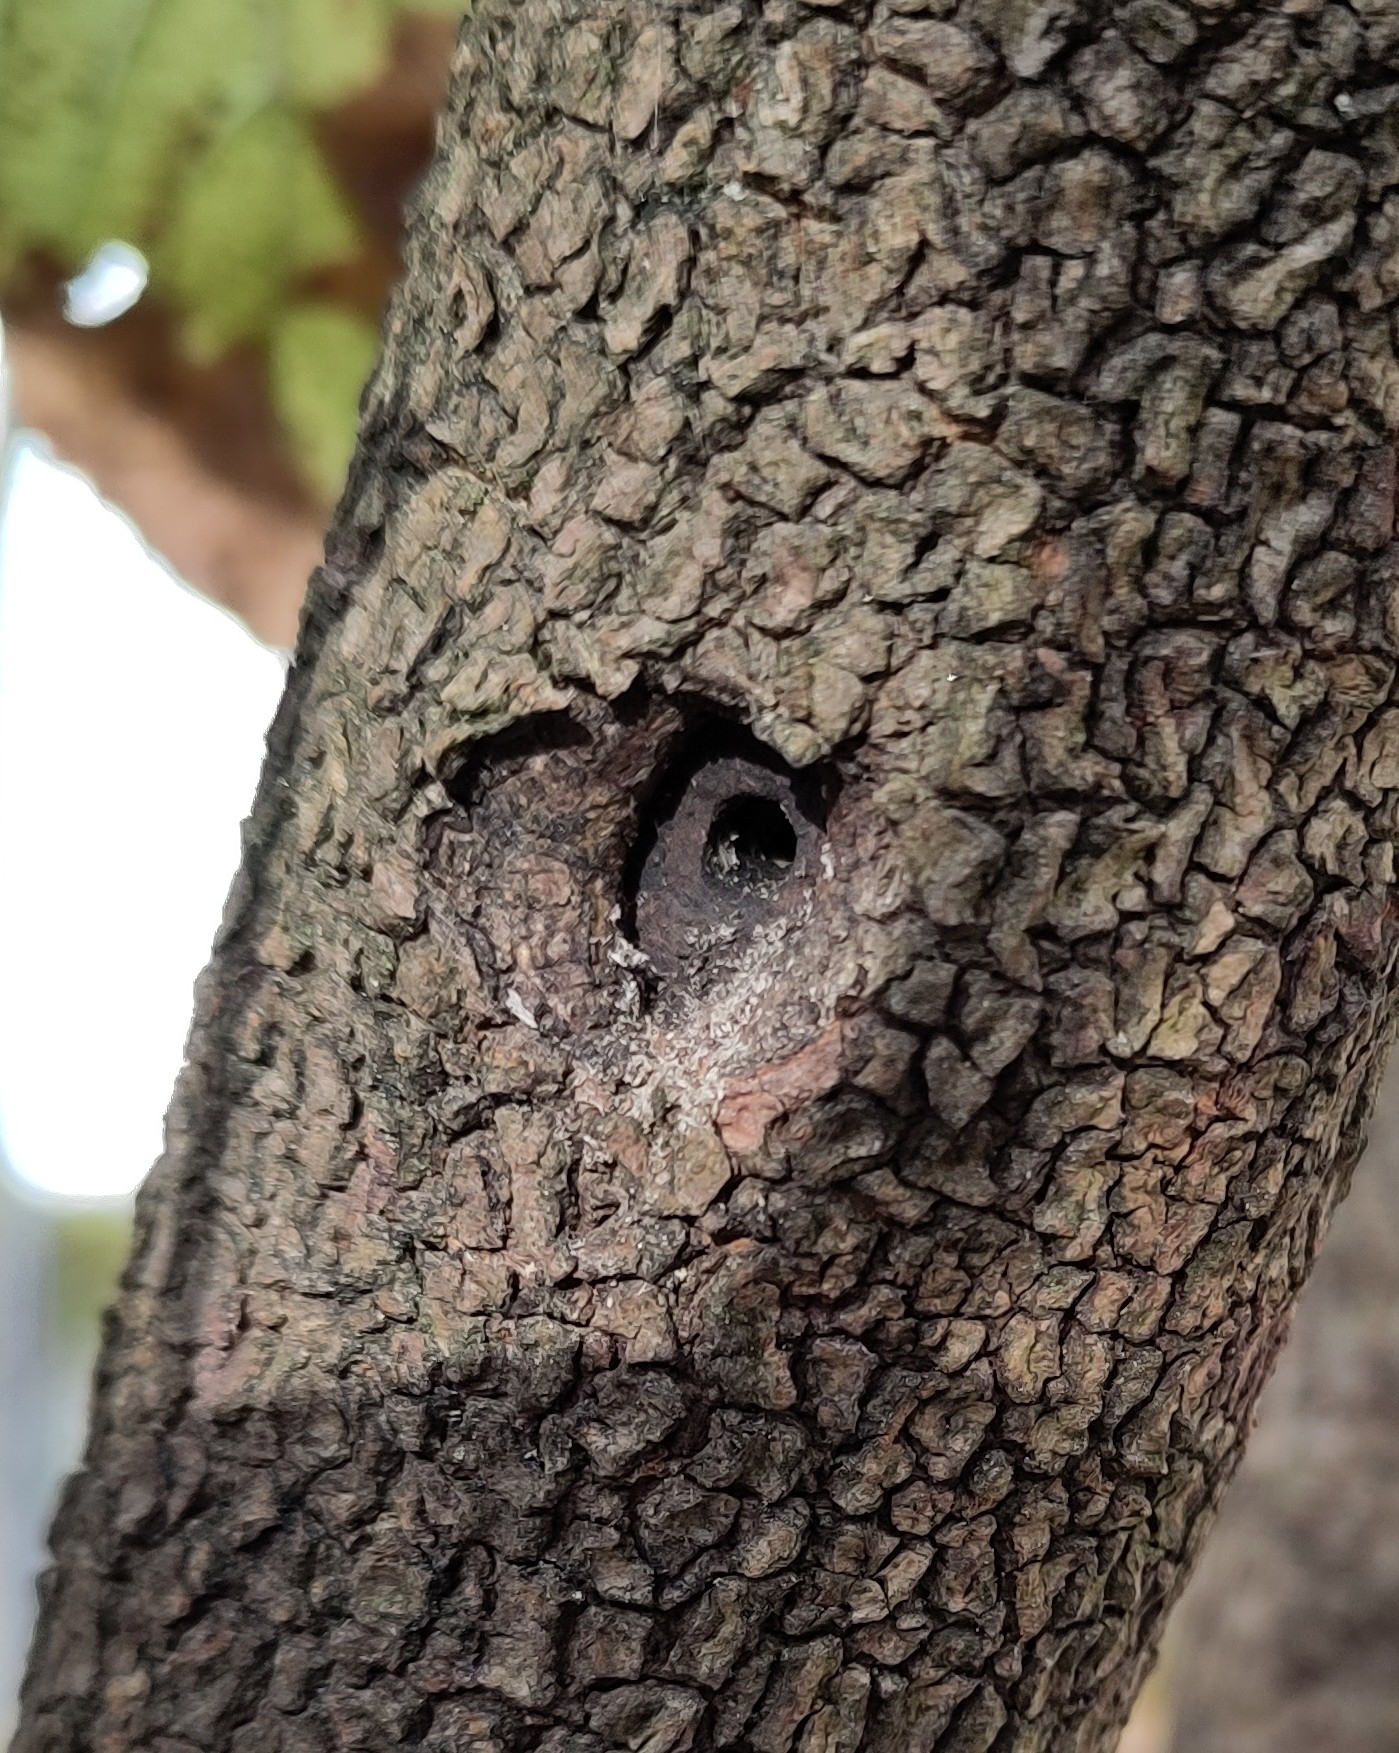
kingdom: Animalia
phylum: Arthropoda
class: Insecta
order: Lepidoptera
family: Sesiidae
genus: Synanthedon
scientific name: Synanthedon andrenaeformis
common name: Orange-tailed clearwing
